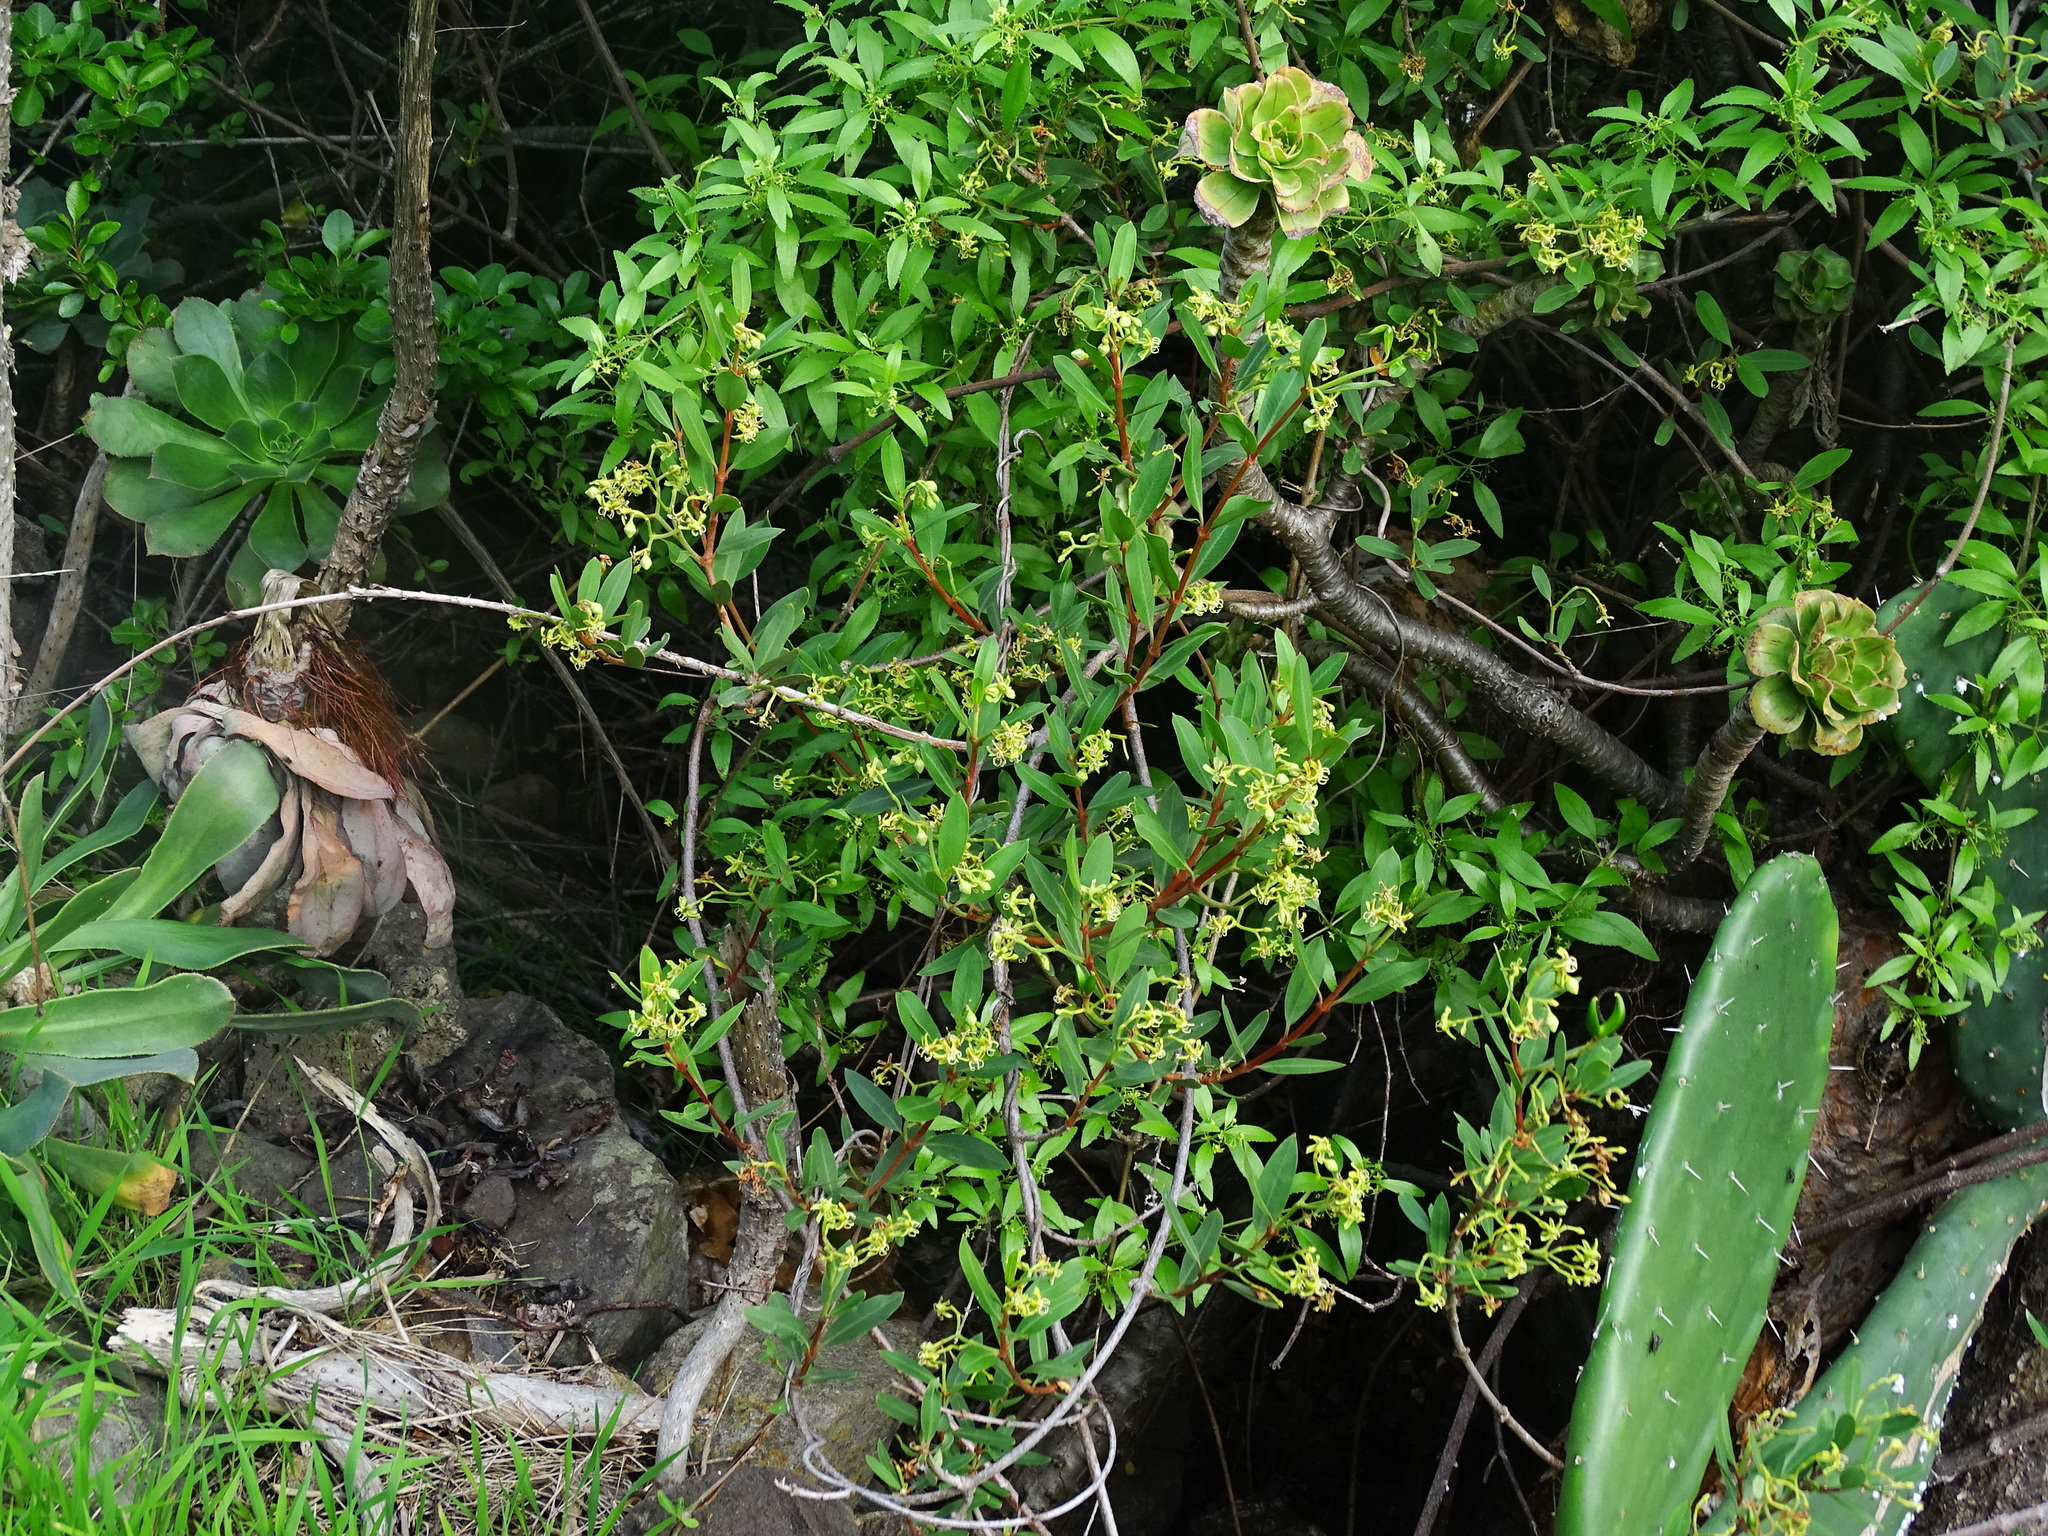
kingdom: Plantae
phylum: Tracheophyta
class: Magnoliopsida
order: Gentianales
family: Apocynaceae
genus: Periploca
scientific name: Periploca laevigata
